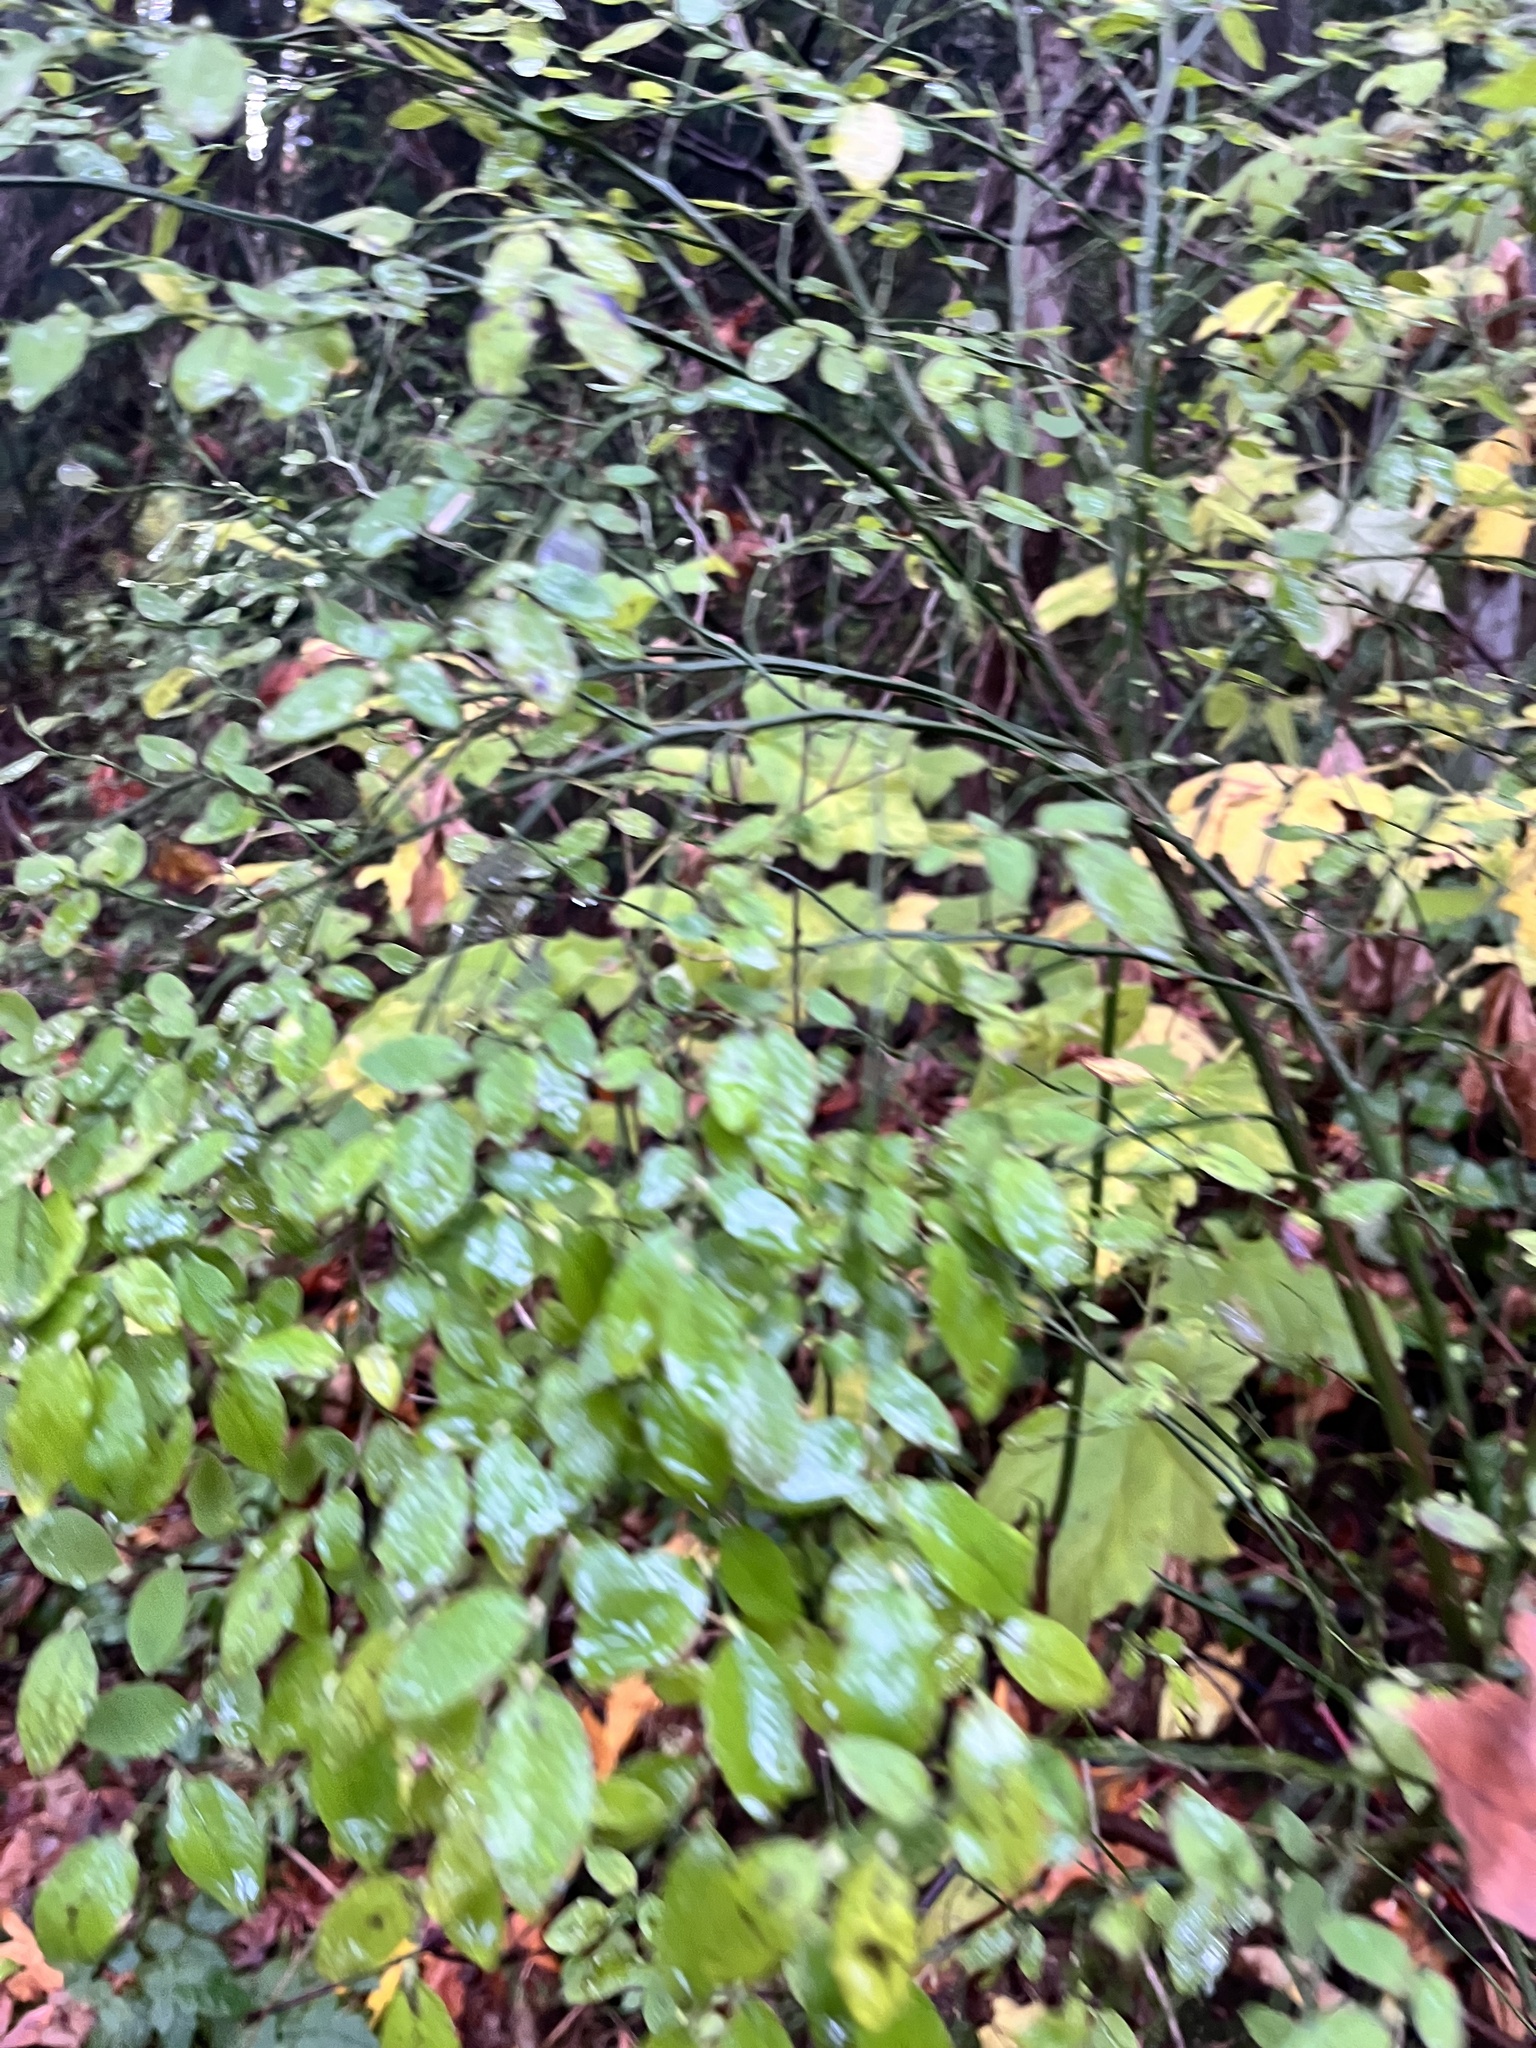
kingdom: Plantae
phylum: Tracheophyta
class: Magnoliopsida
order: Ericales
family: Ericaceae
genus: Vaccinium
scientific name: Vaccinium parvifolium
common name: Red-huckleberry
